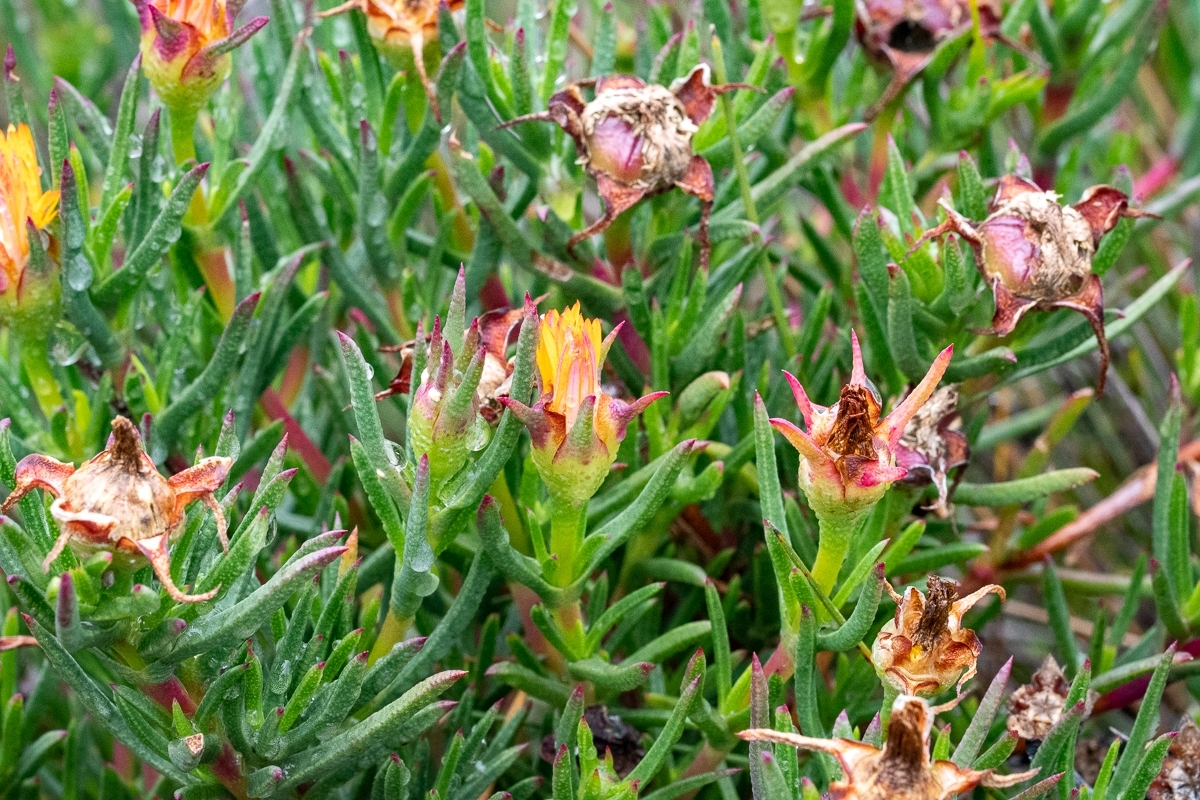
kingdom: Plantae
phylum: Tracheophyta
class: Magnoliopsida
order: Caryophyllales
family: Aizoaceae
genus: Carpobrotus
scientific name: Carpobrotus edulis
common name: Hottentot-fig
